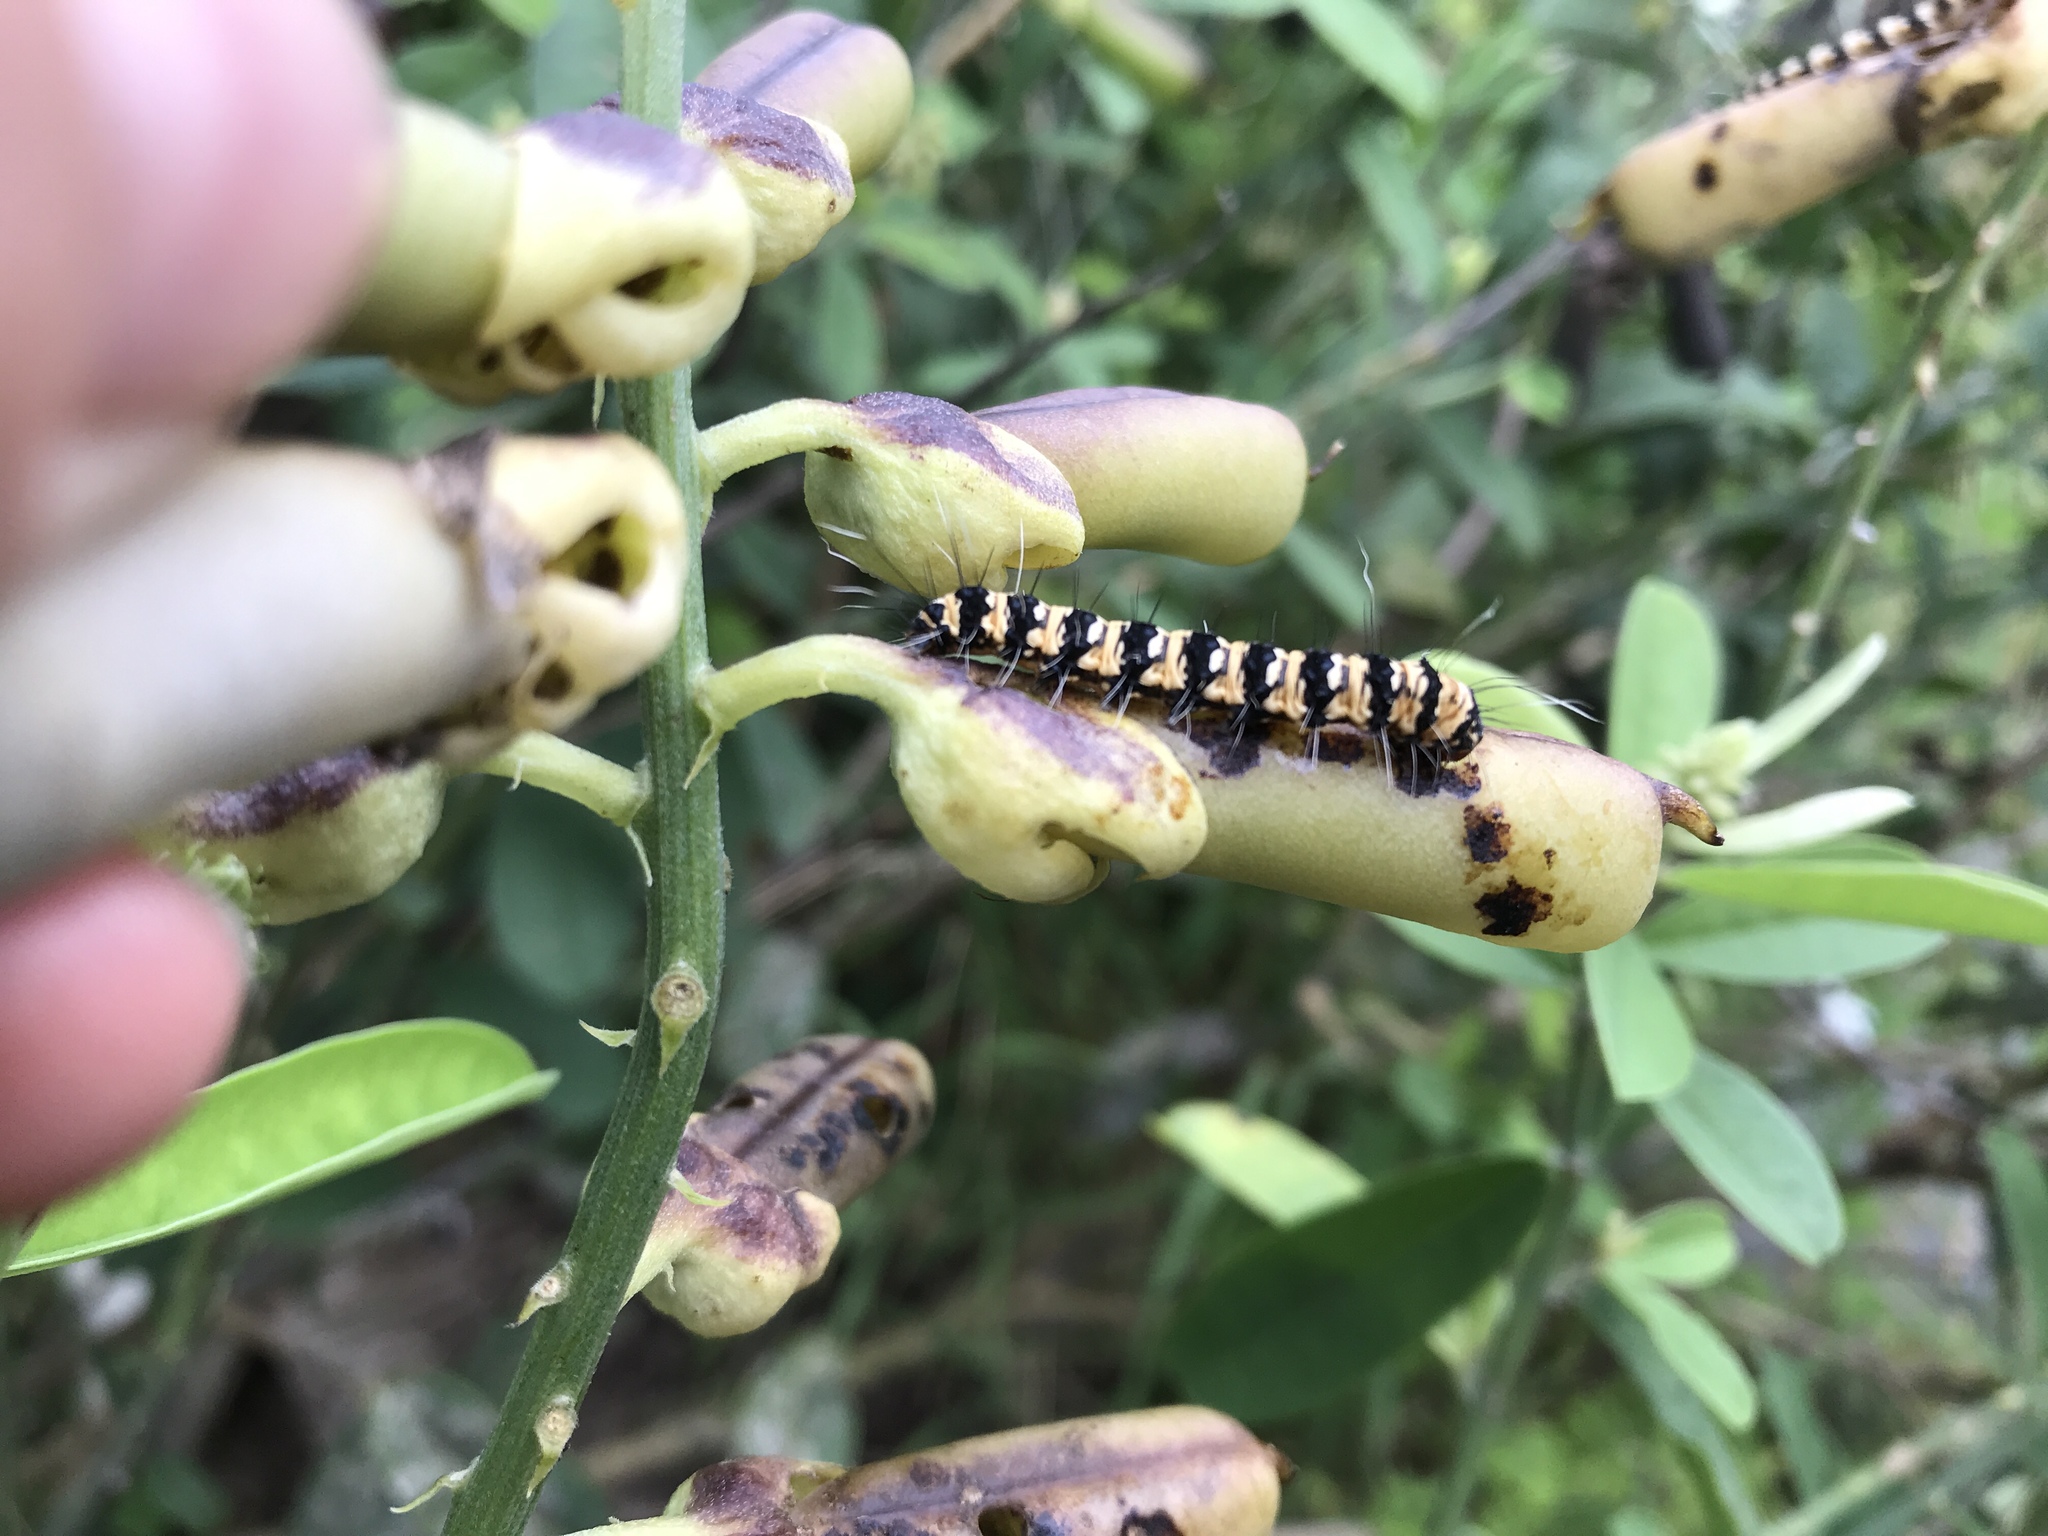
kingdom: Animalia
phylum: Arthropoda
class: Insecta
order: Lepidoptera
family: Erebidae
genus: Utetheisa
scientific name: Utetheisa ornatrix
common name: Beautiful utetheisa
